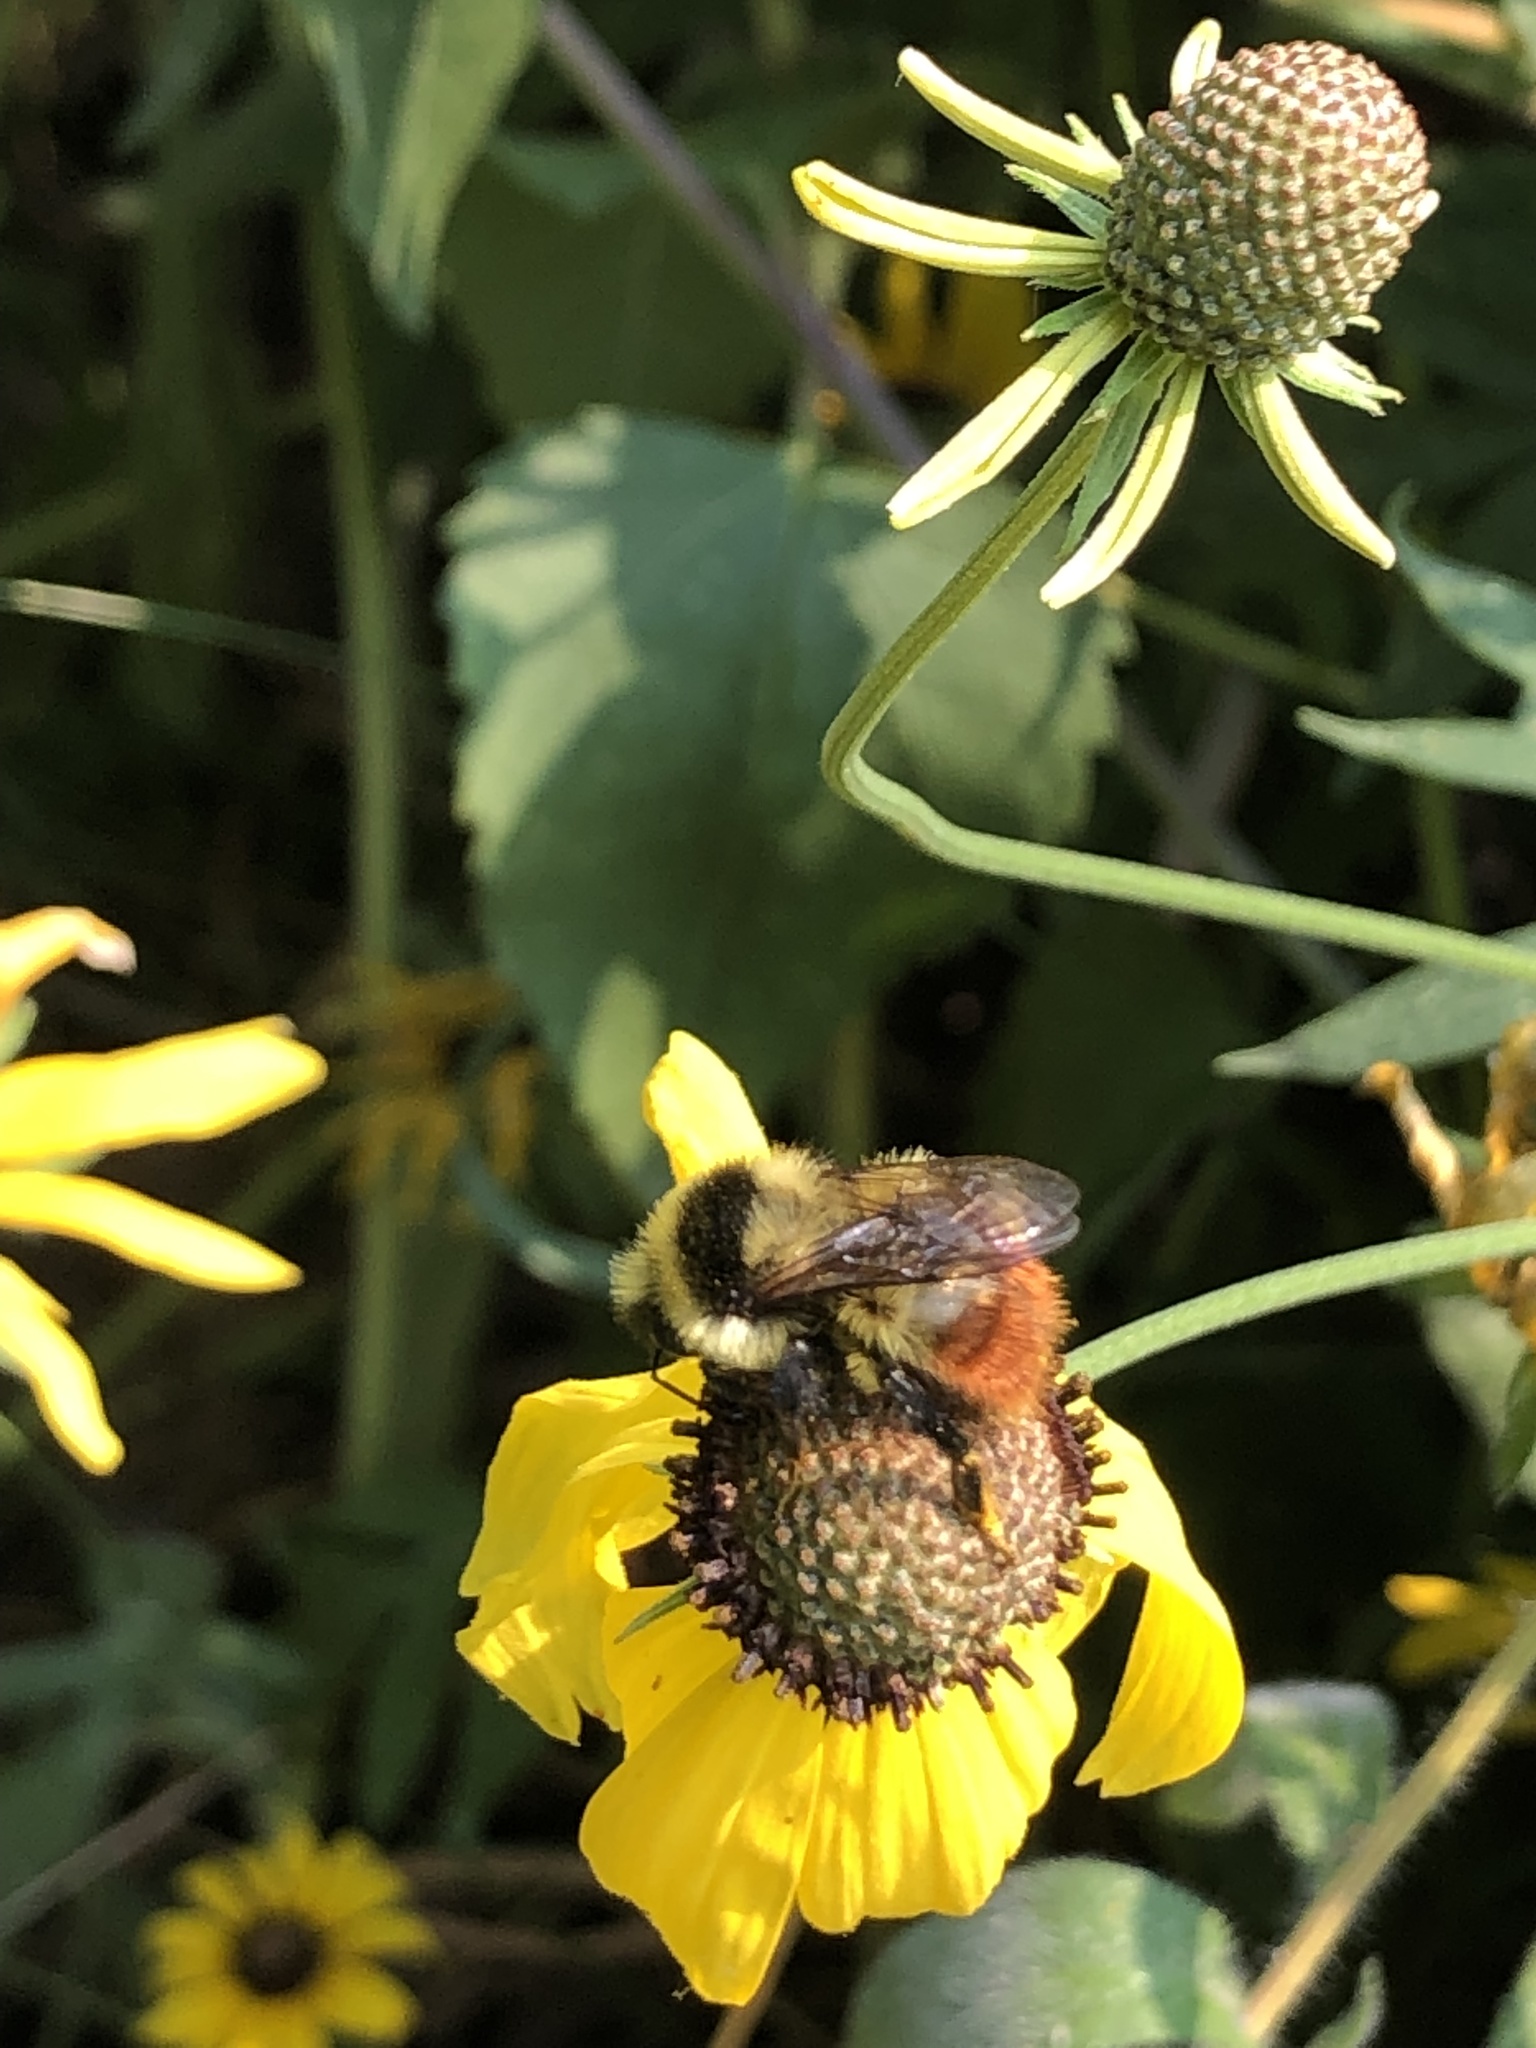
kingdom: Animalia
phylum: Arthropoda
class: Insecta
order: Hymenoptera
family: Apidae
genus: Bombus
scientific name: Bombus rufocinctus
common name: Red-belted bumble bee
